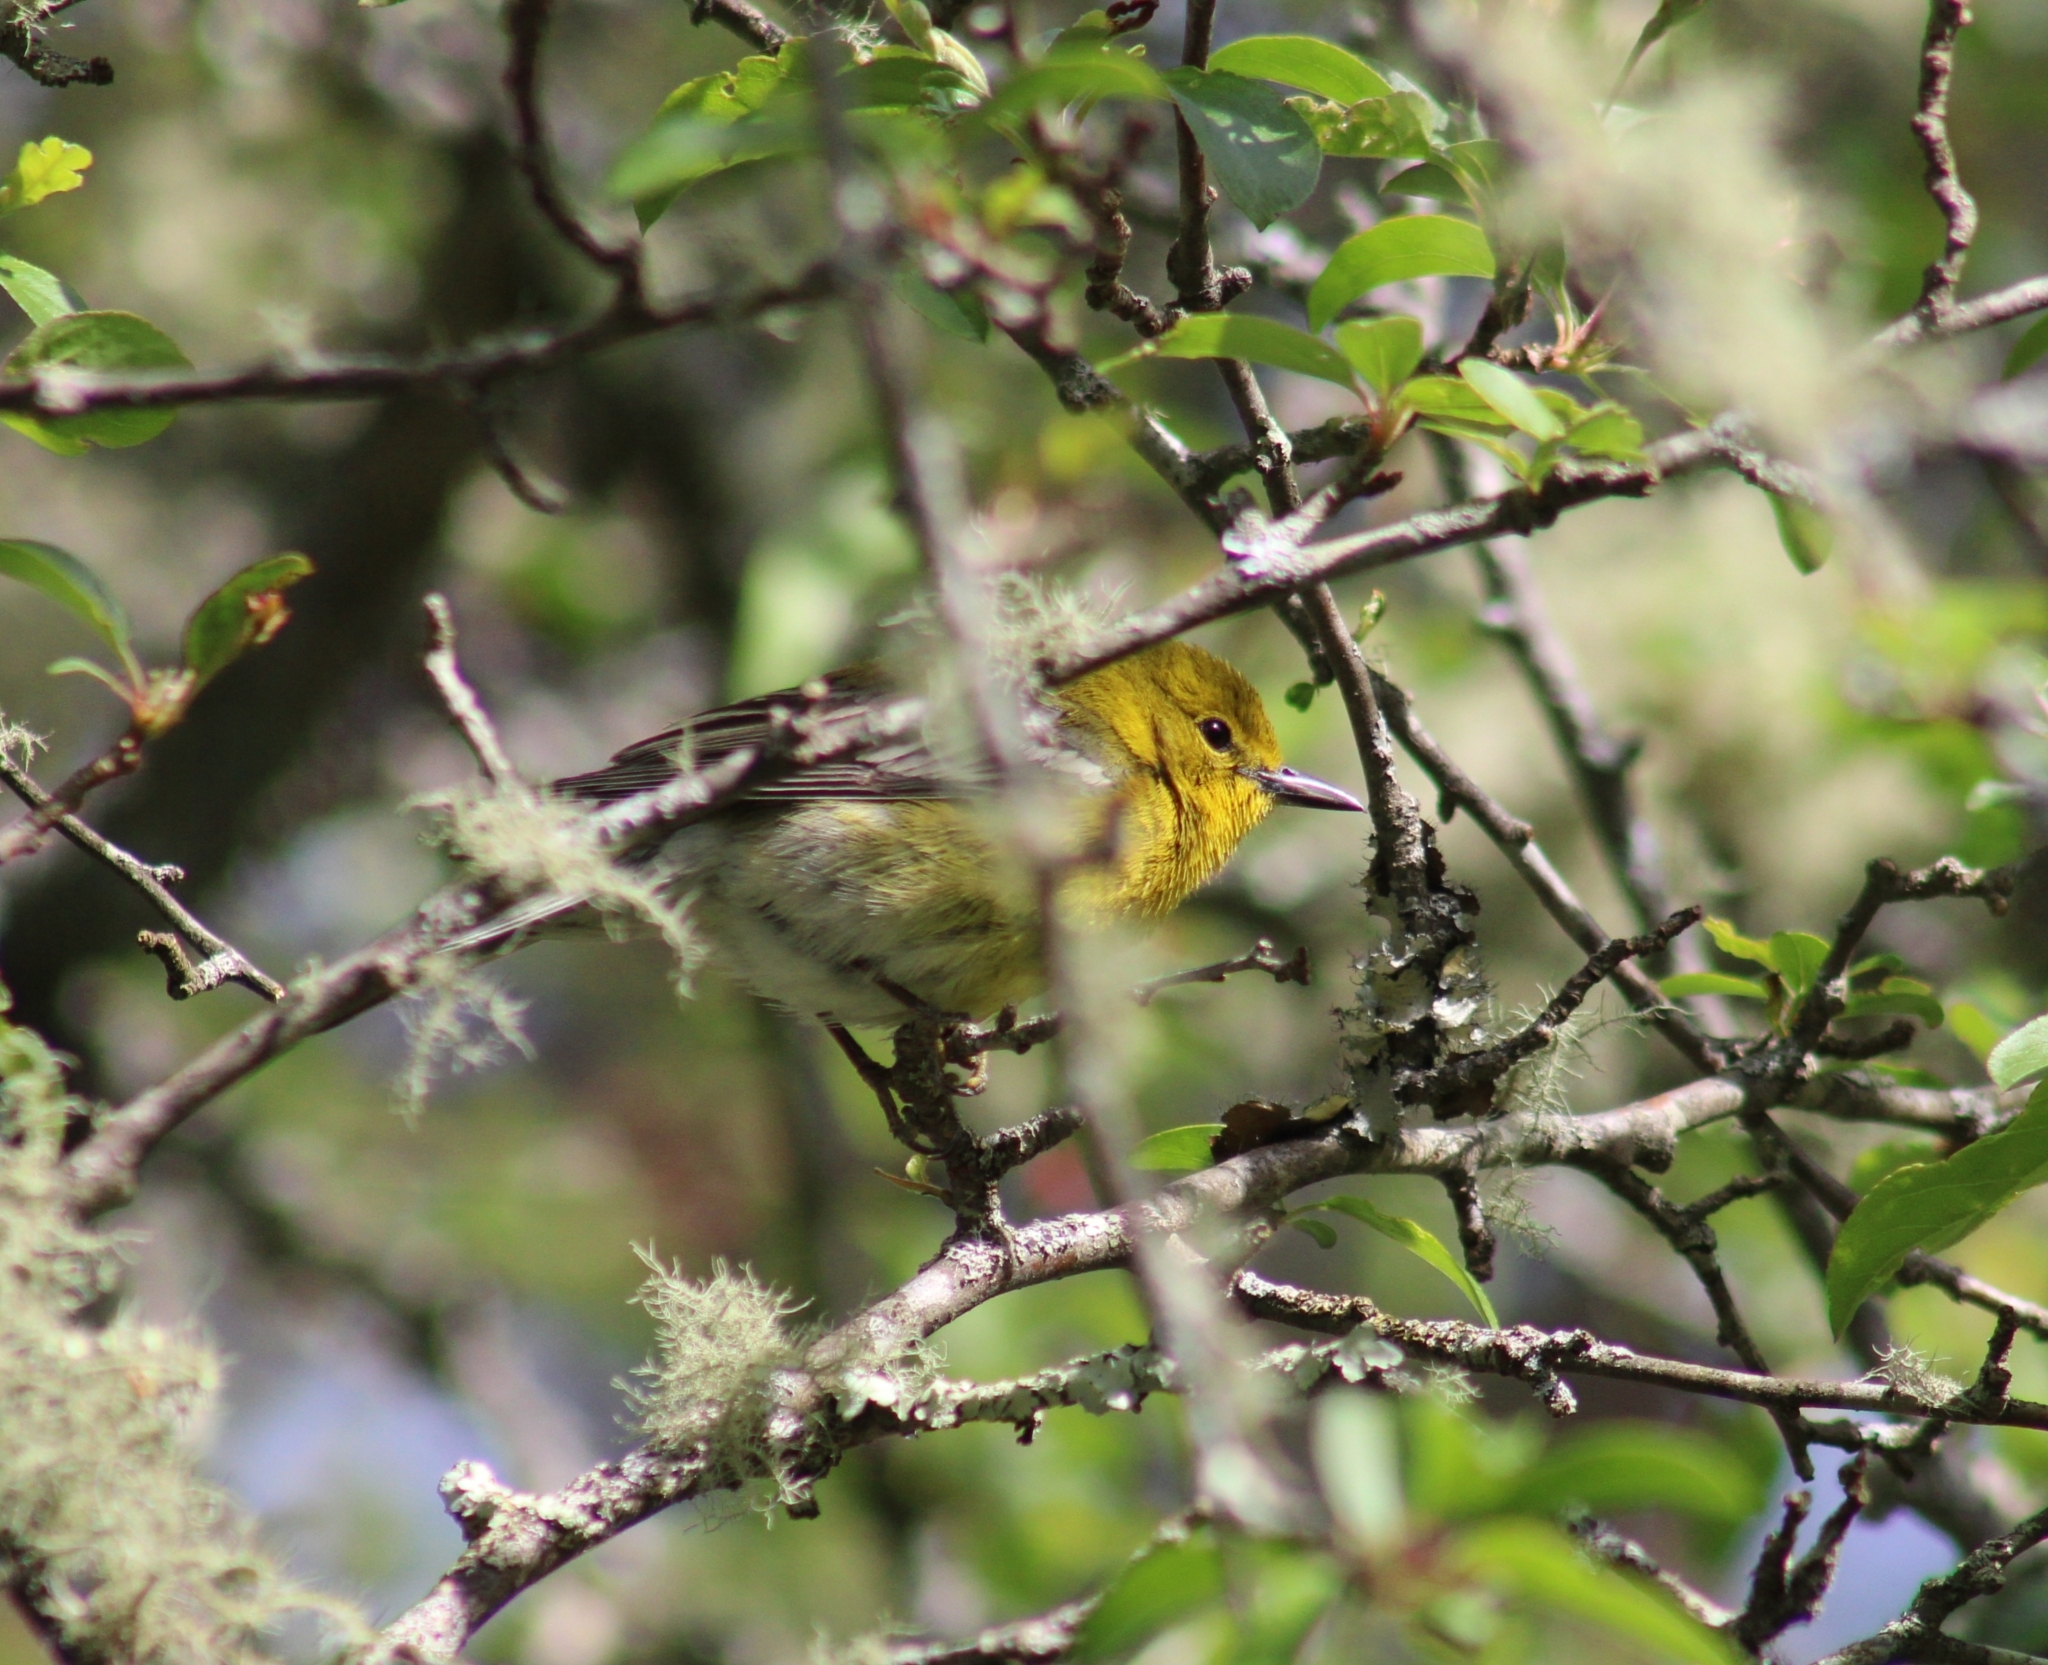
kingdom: Animalia
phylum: Chordata
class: Aves
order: Passeriformes
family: Parulidae
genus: Setophaga
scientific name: Setophaga pinus
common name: Pine warbler
